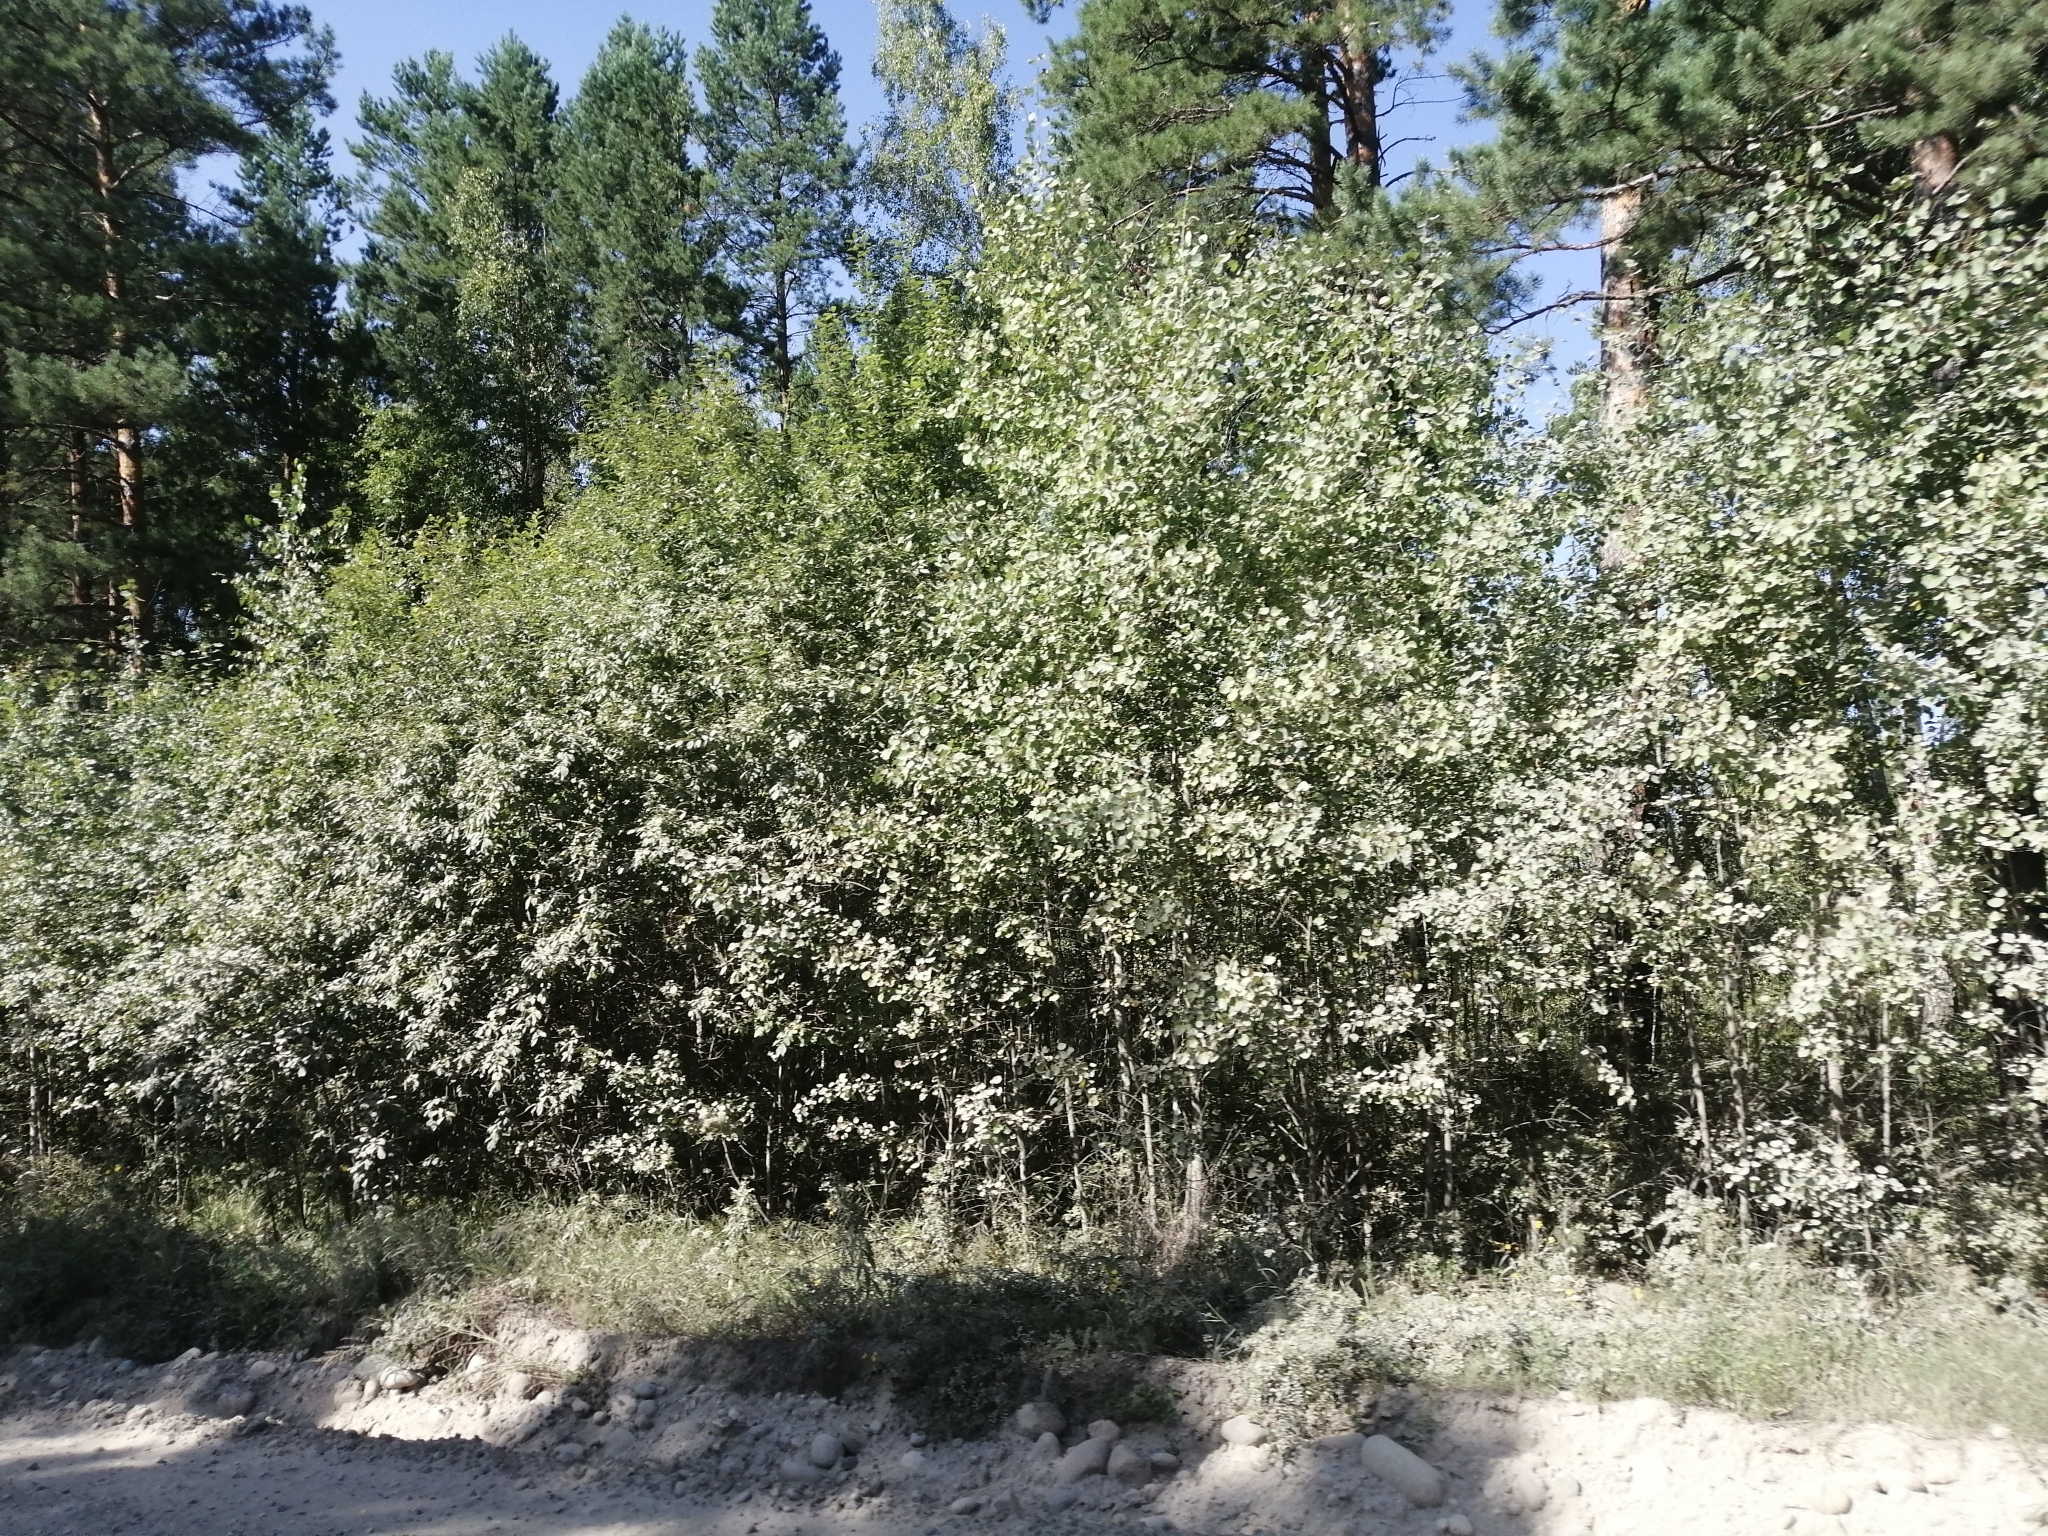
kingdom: Plantae
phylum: Tracheophyta
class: Pinopsida
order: Pinales
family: Pinaceae
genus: Pinus
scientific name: Pinus sylvestris
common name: Scots pine
